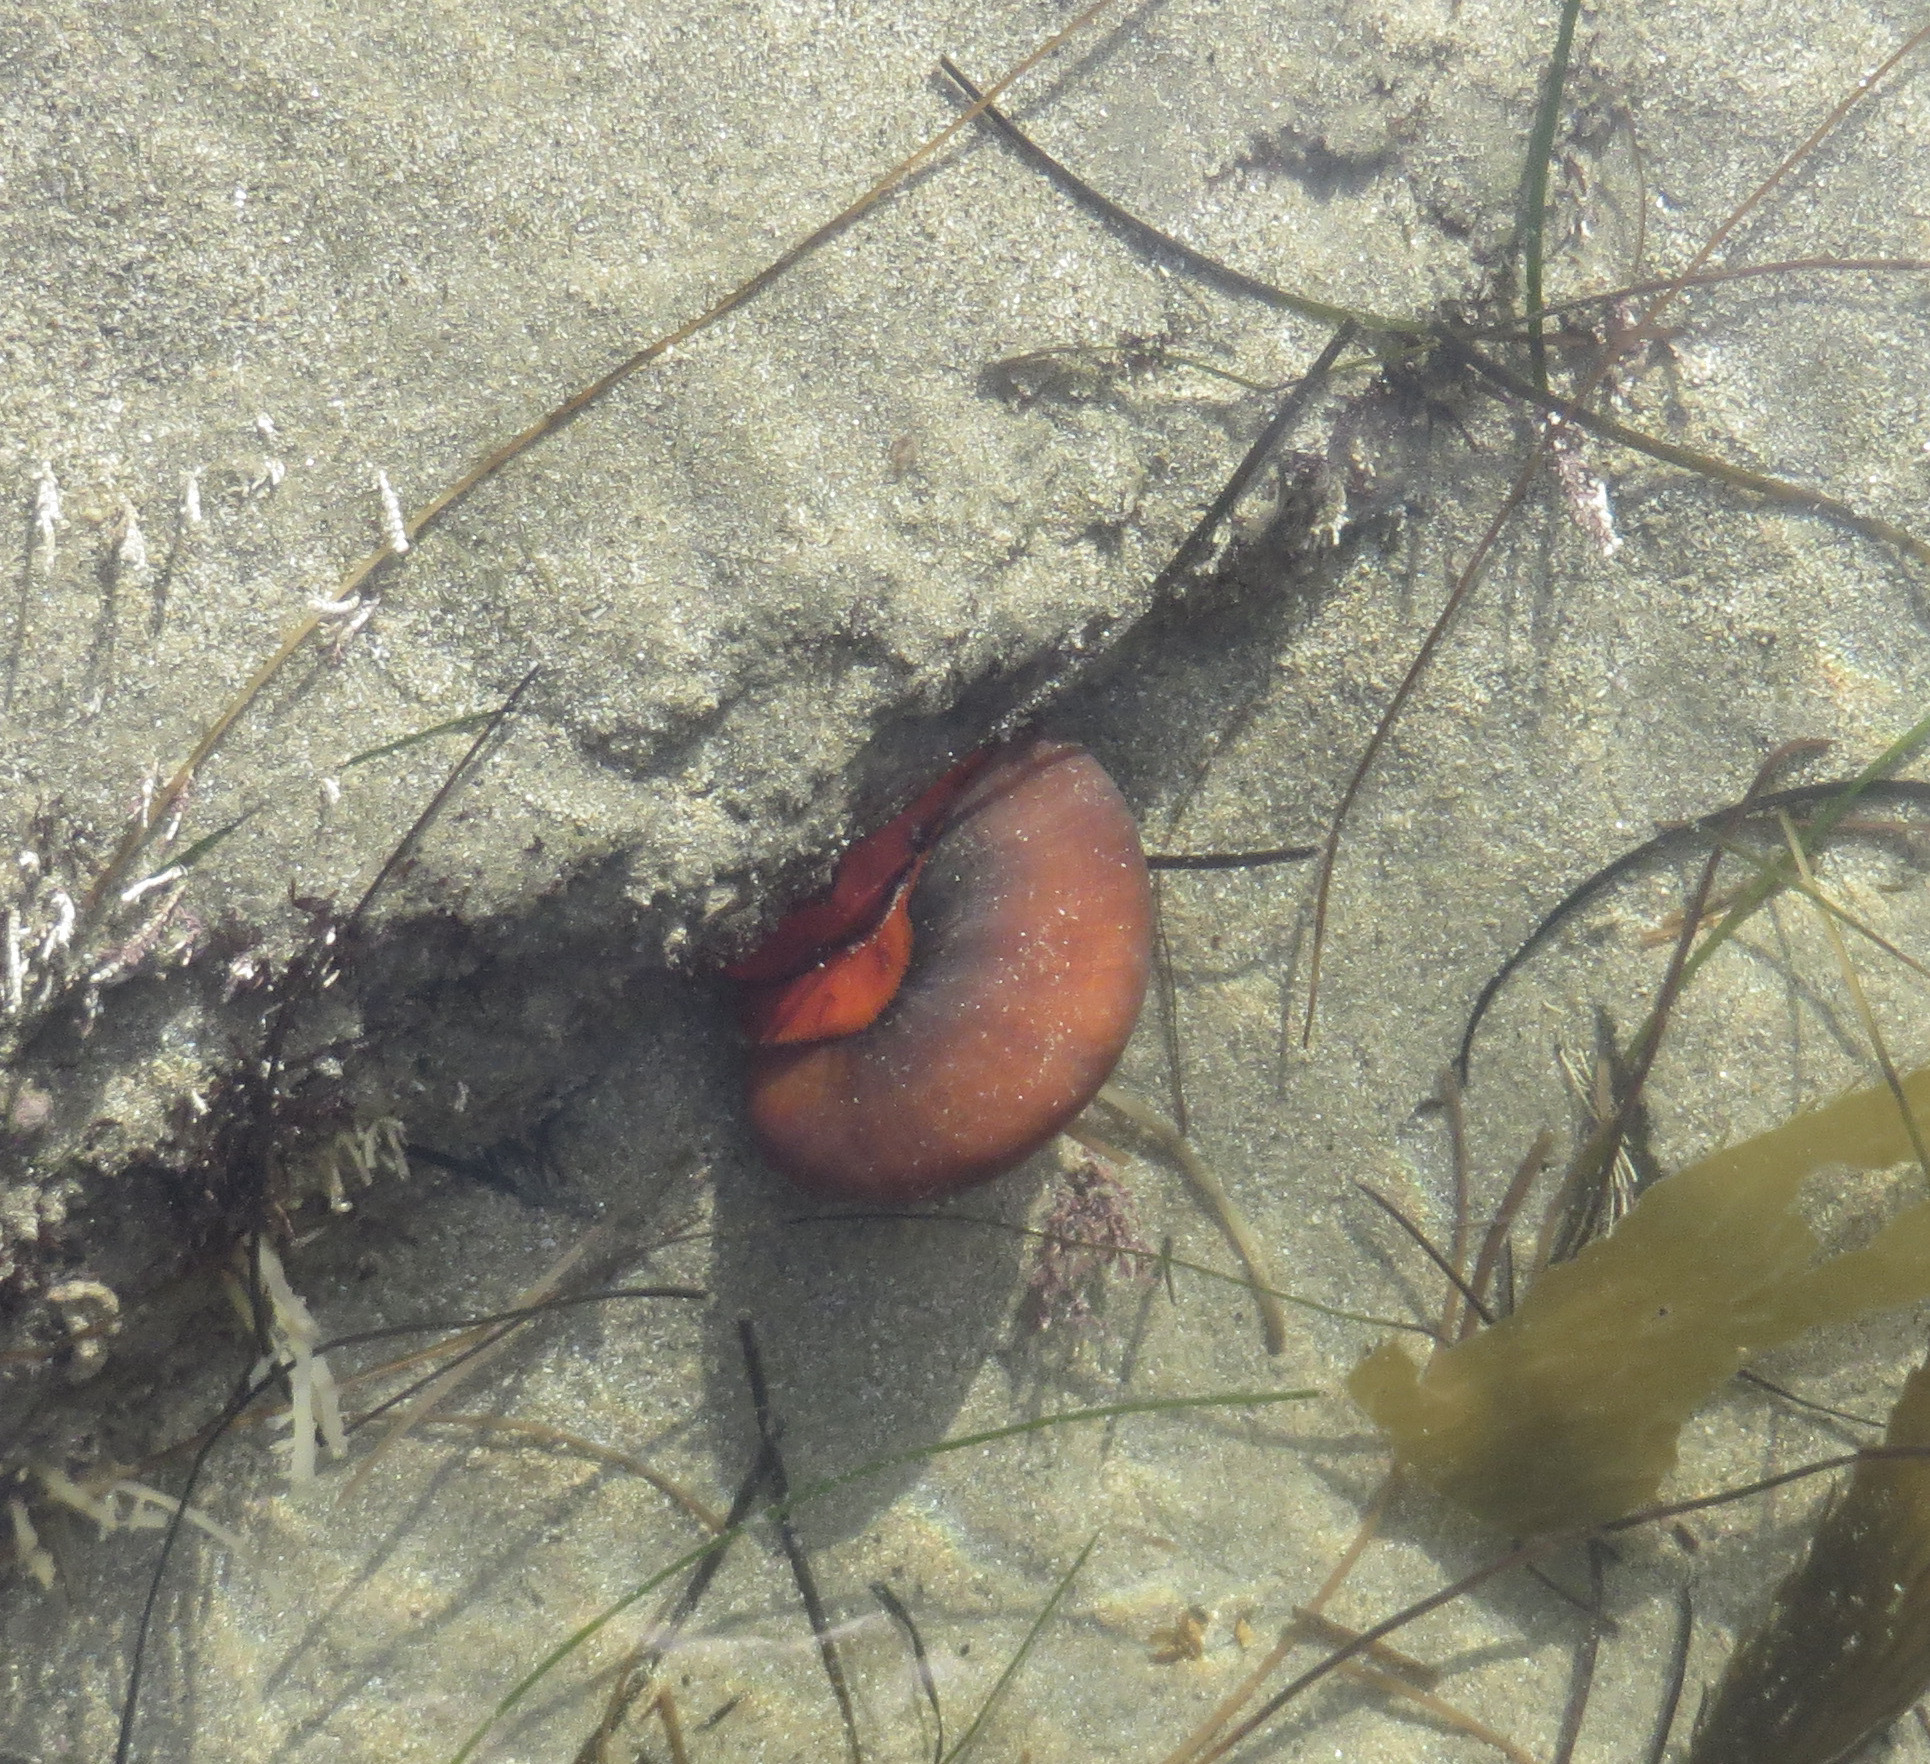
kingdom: Animalia
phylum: Mollusca
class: Gastropoda
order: Trochida
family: Tegulidae
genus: Norrisia
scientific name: Norrisia norrisii
